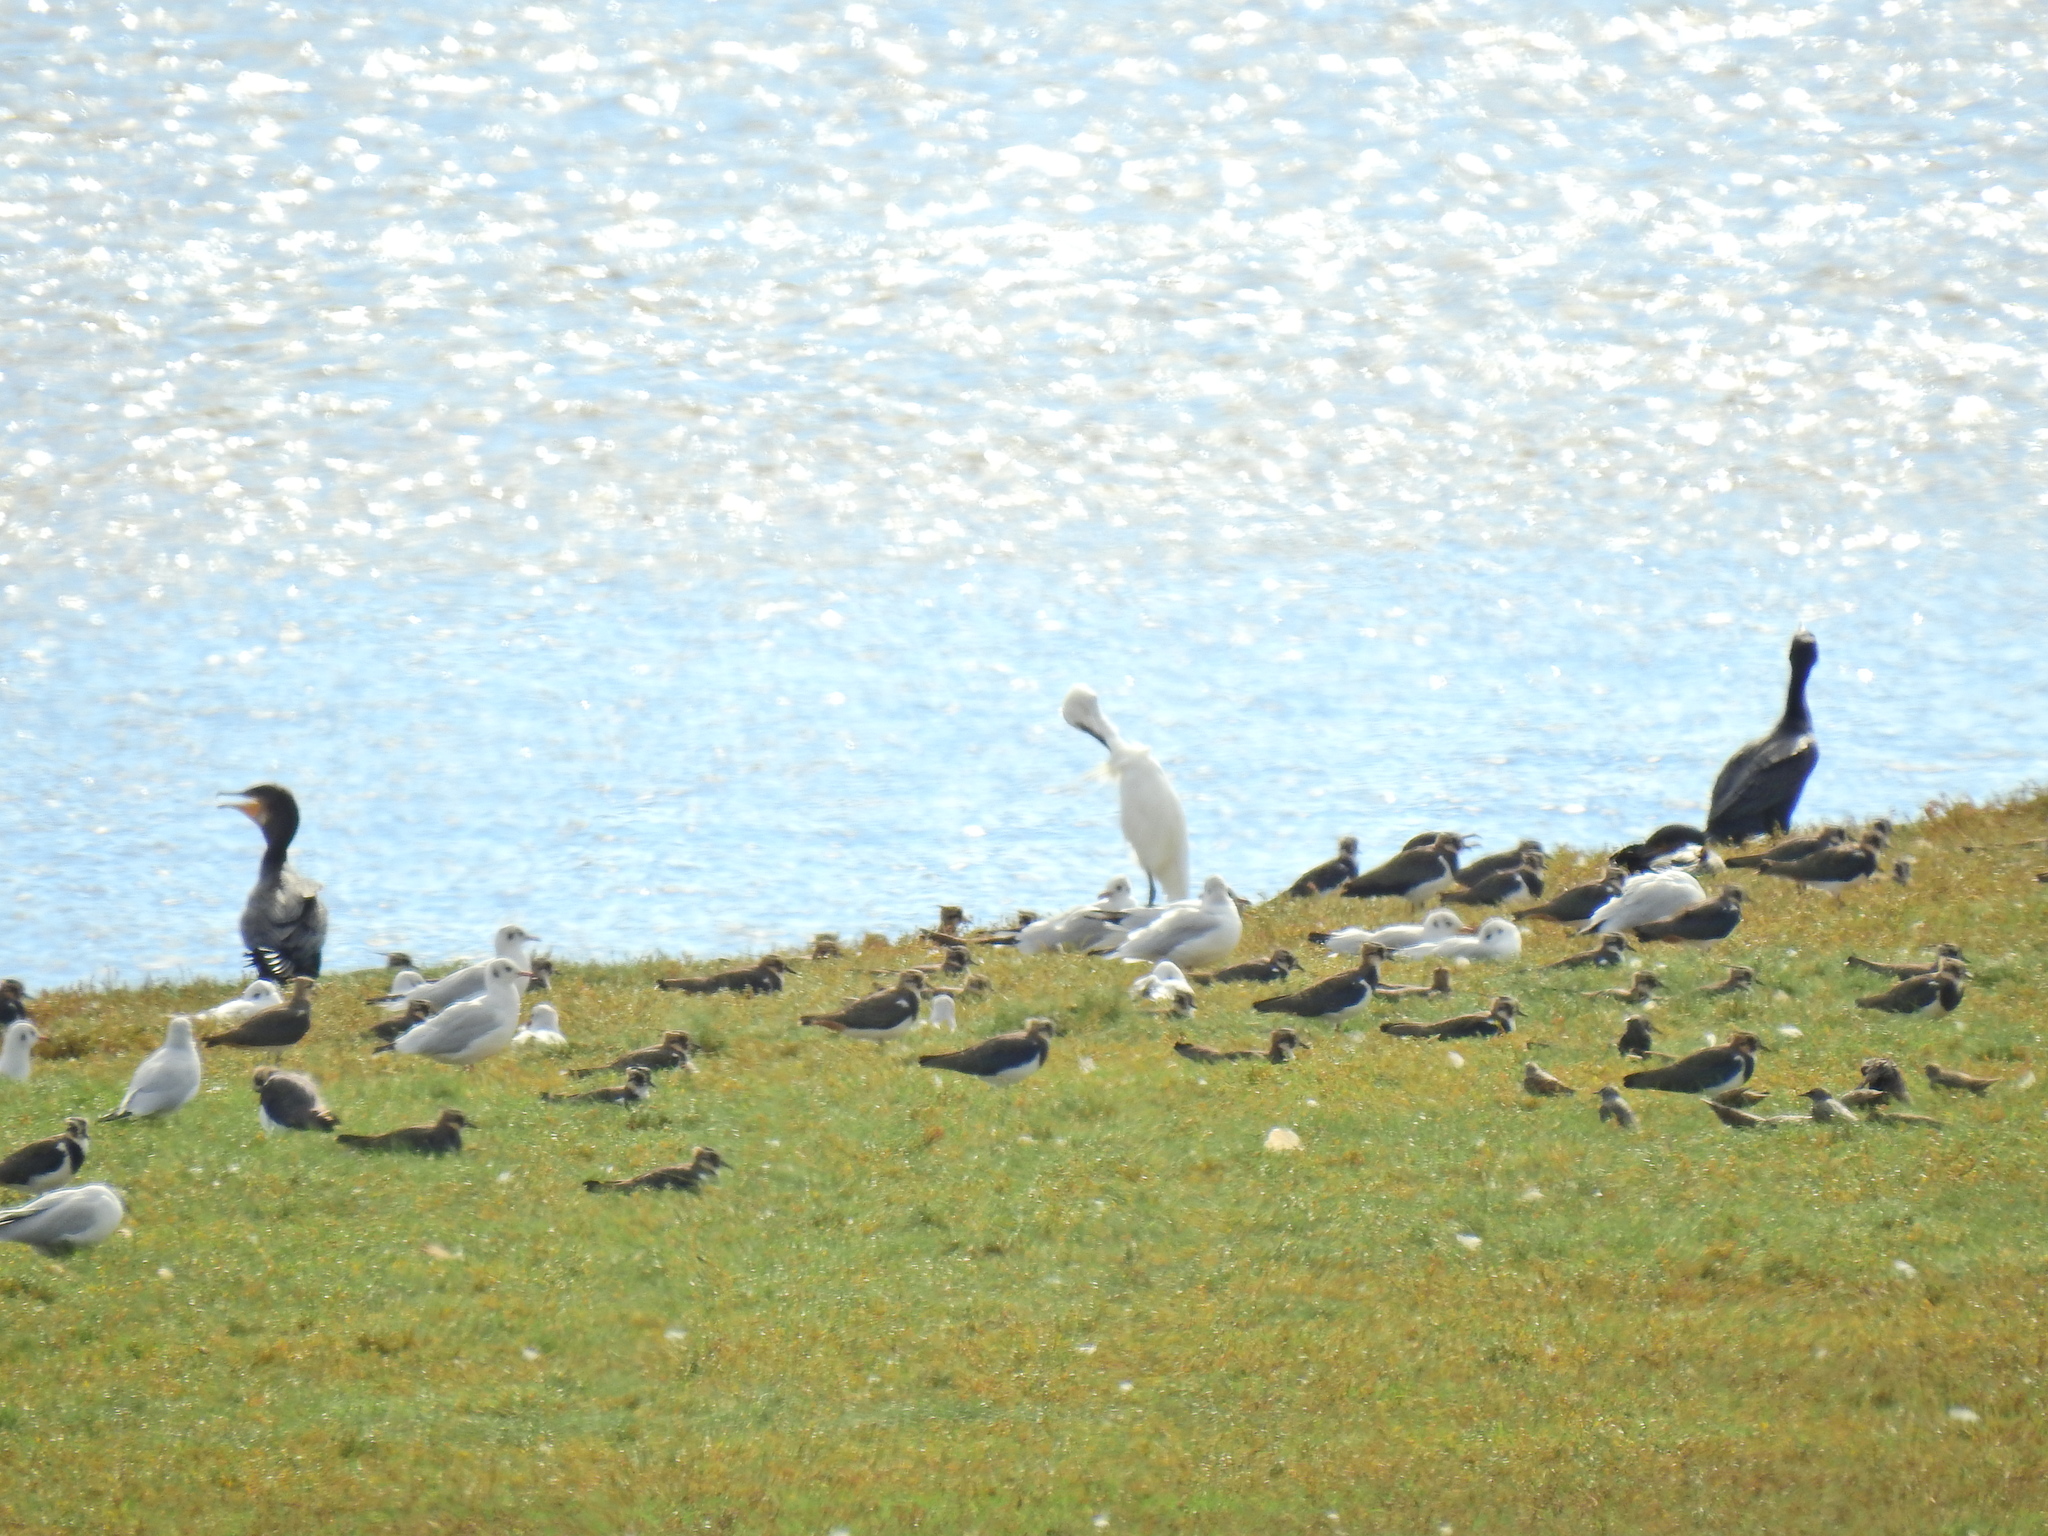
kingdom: Animalia
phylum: Chordata
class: Aves
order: Charadriiformes
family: Laridae
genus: Chroicocephalus
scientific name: Chroicocephalus ridibundus
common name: Black-headed gull
